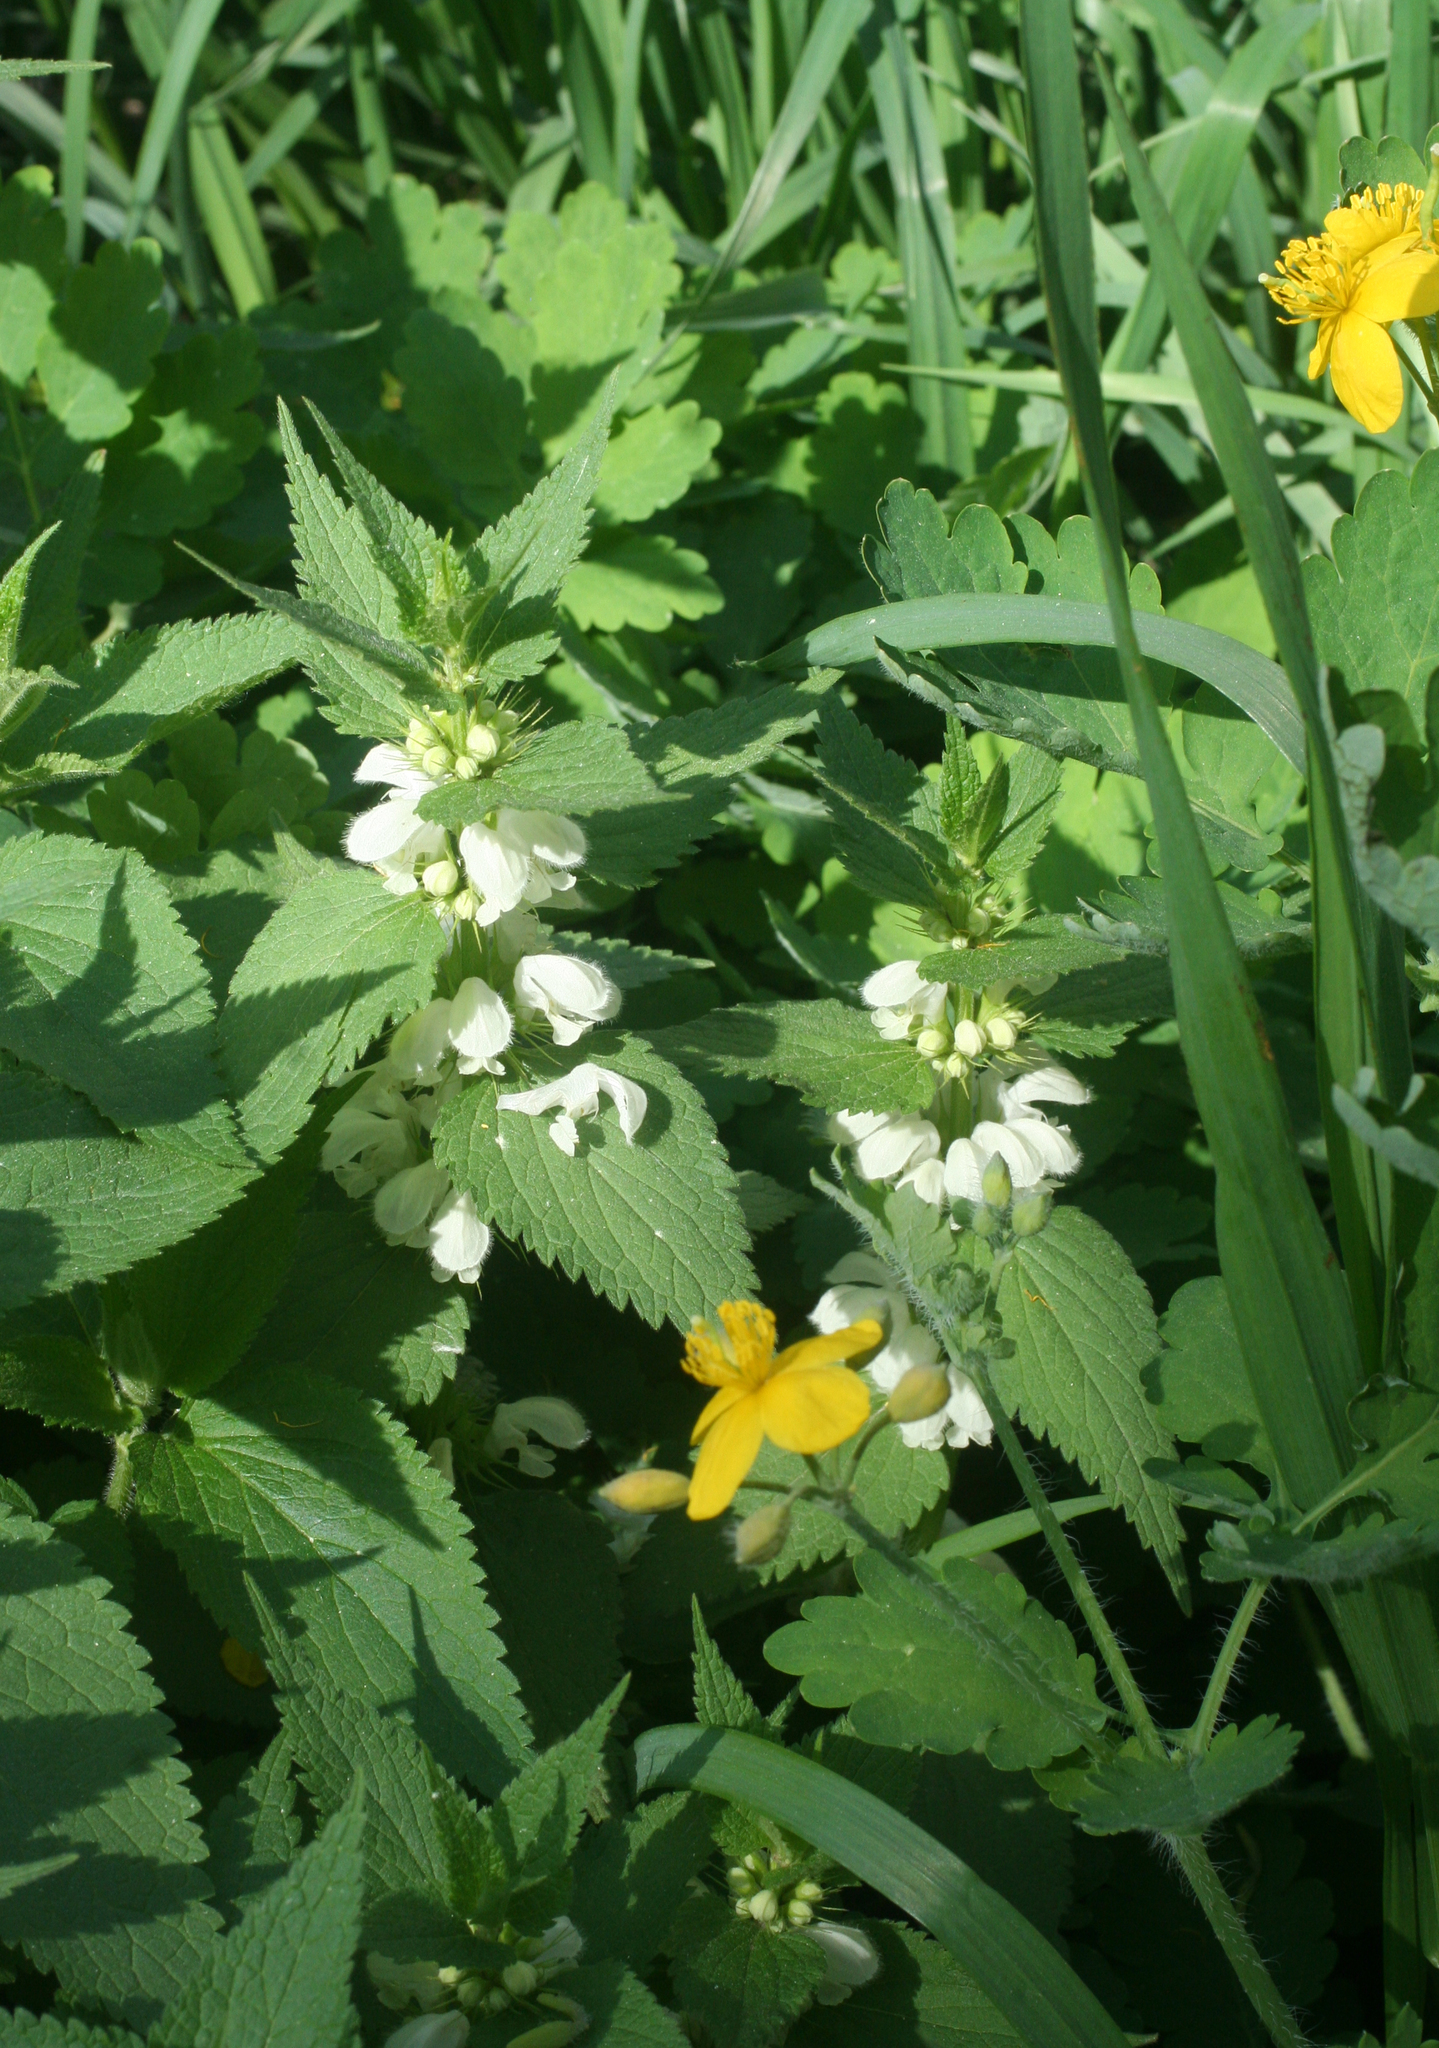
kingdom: Plantae
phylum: Tracheophyta
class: Magnoliopsida
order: Lamiales
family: Lamiaceae
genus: Lamium
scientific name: Lamium album
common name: White dead-nettle
